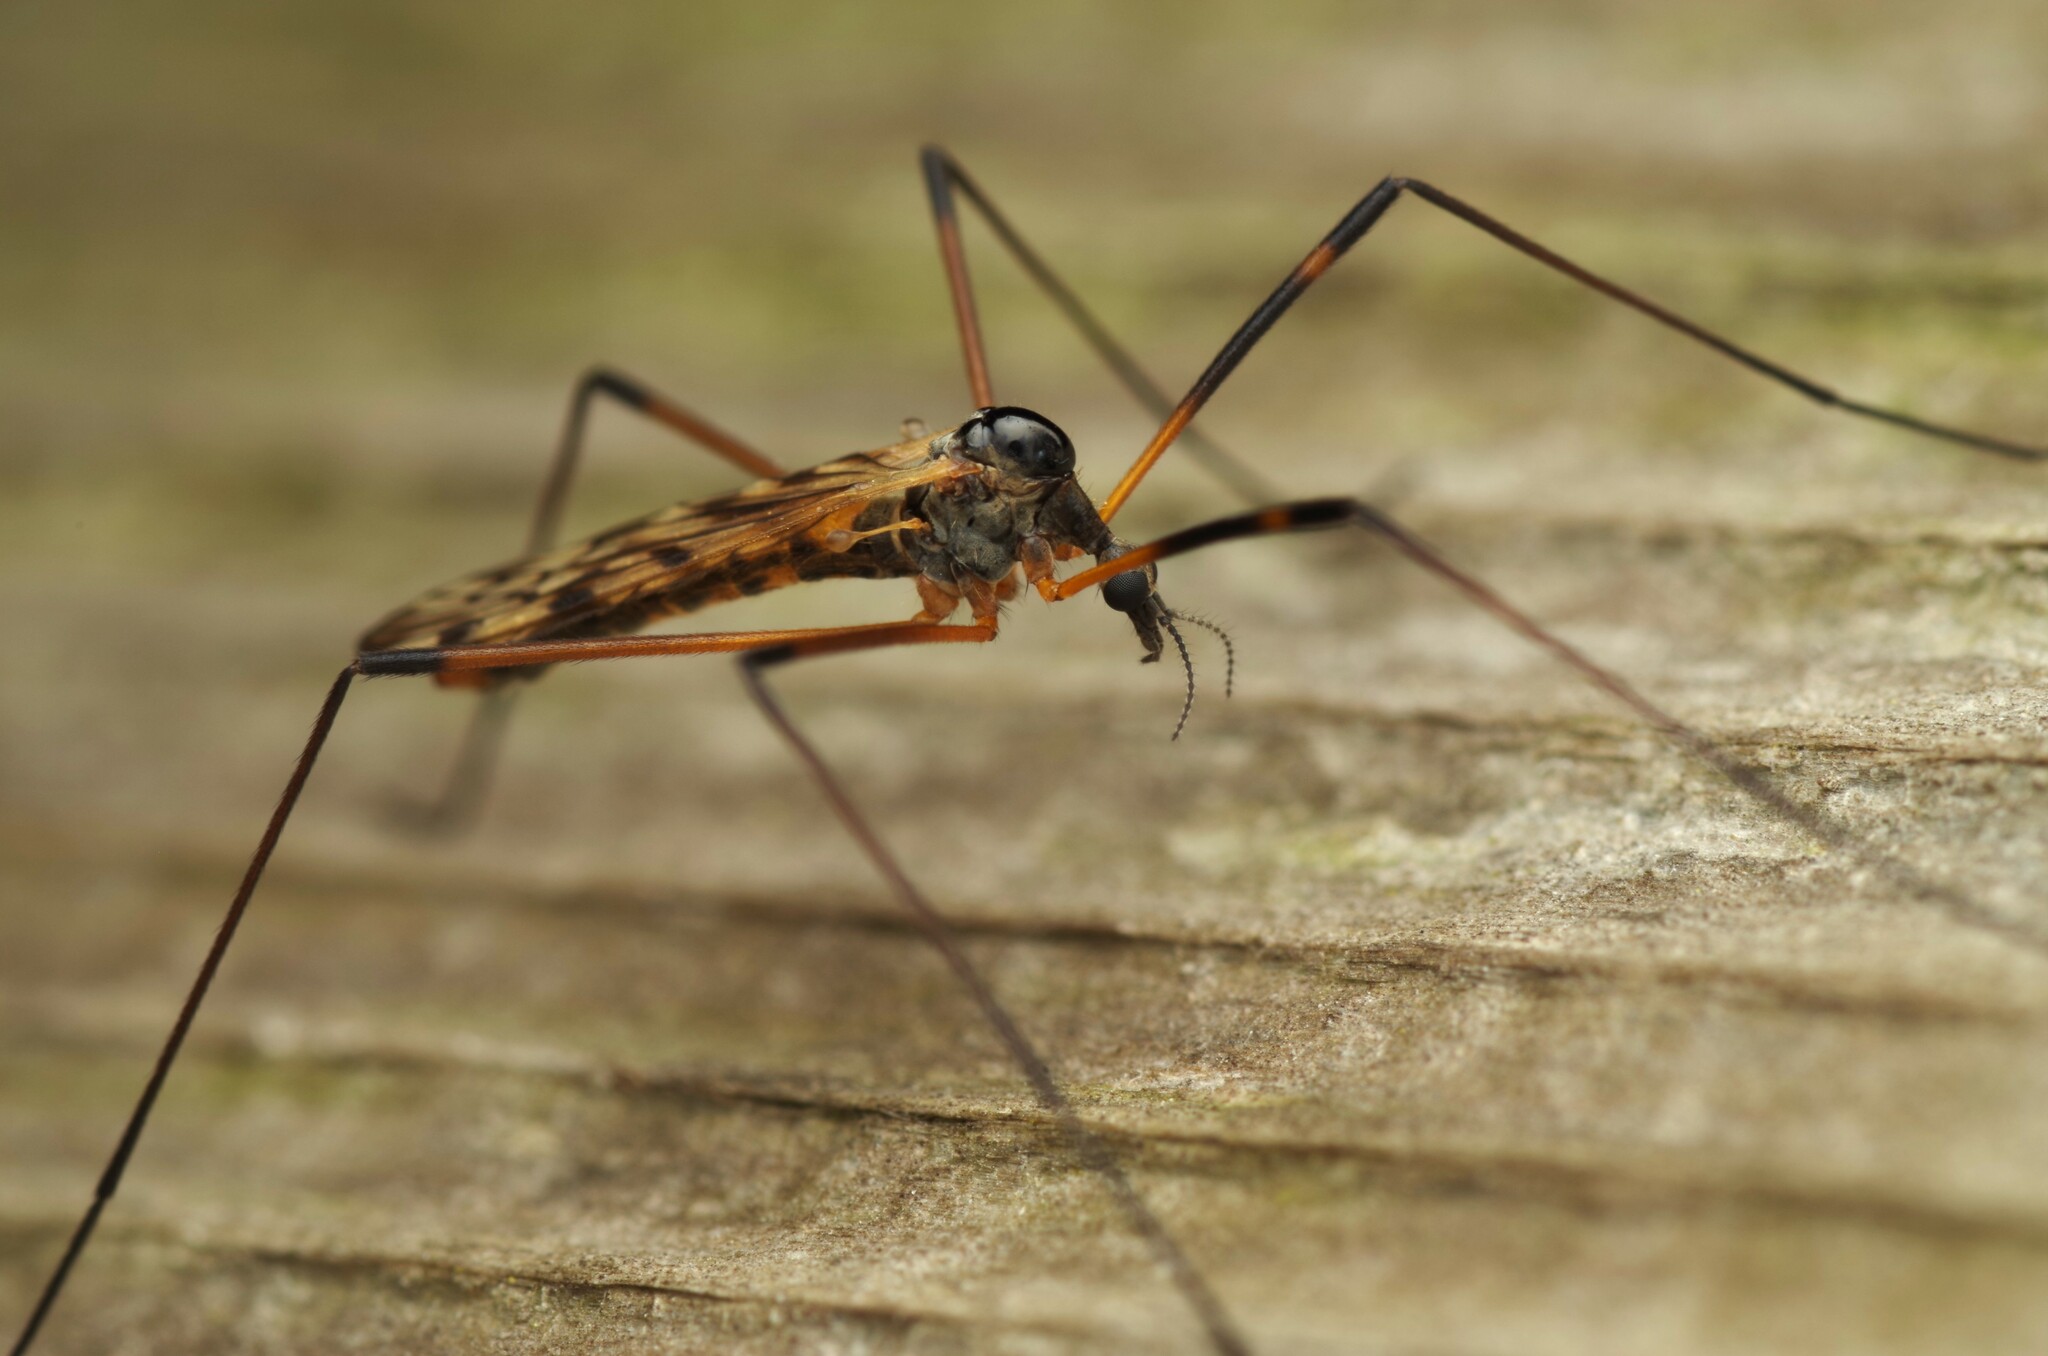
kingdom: Animalia
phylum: Arthropoda
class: Insecta
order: Diptera
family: Limoniidae
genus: Limonia
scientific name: Limonia maculipennis
